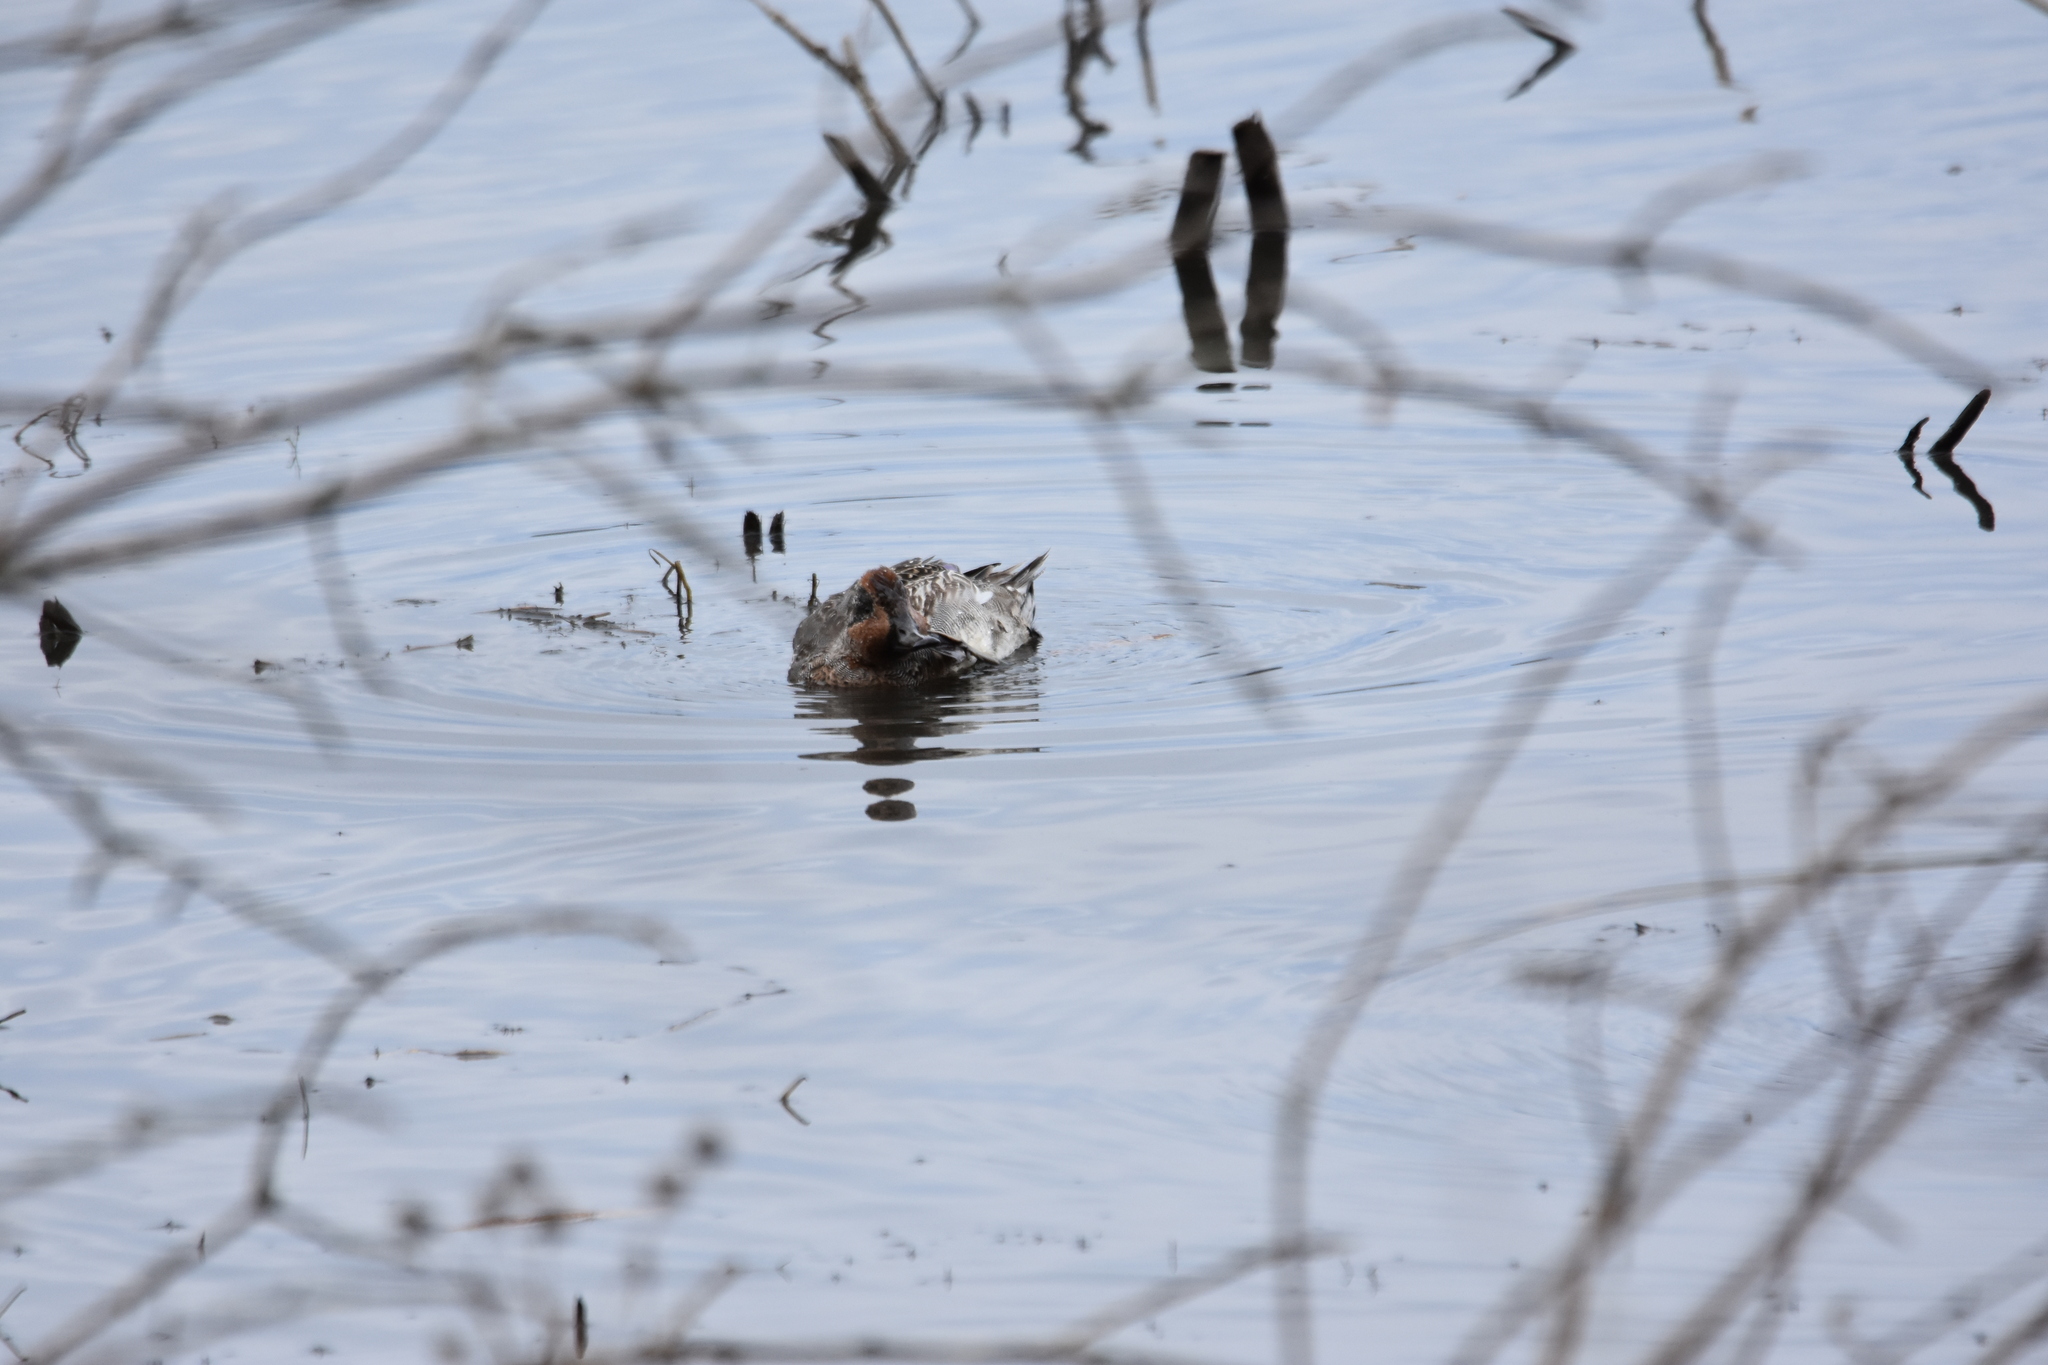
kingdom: Animalia
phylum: Chordata
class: Aves
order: Anseriformes
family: Anatidae
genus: Anas
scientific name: Anas crecca
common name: Eurasian teal
